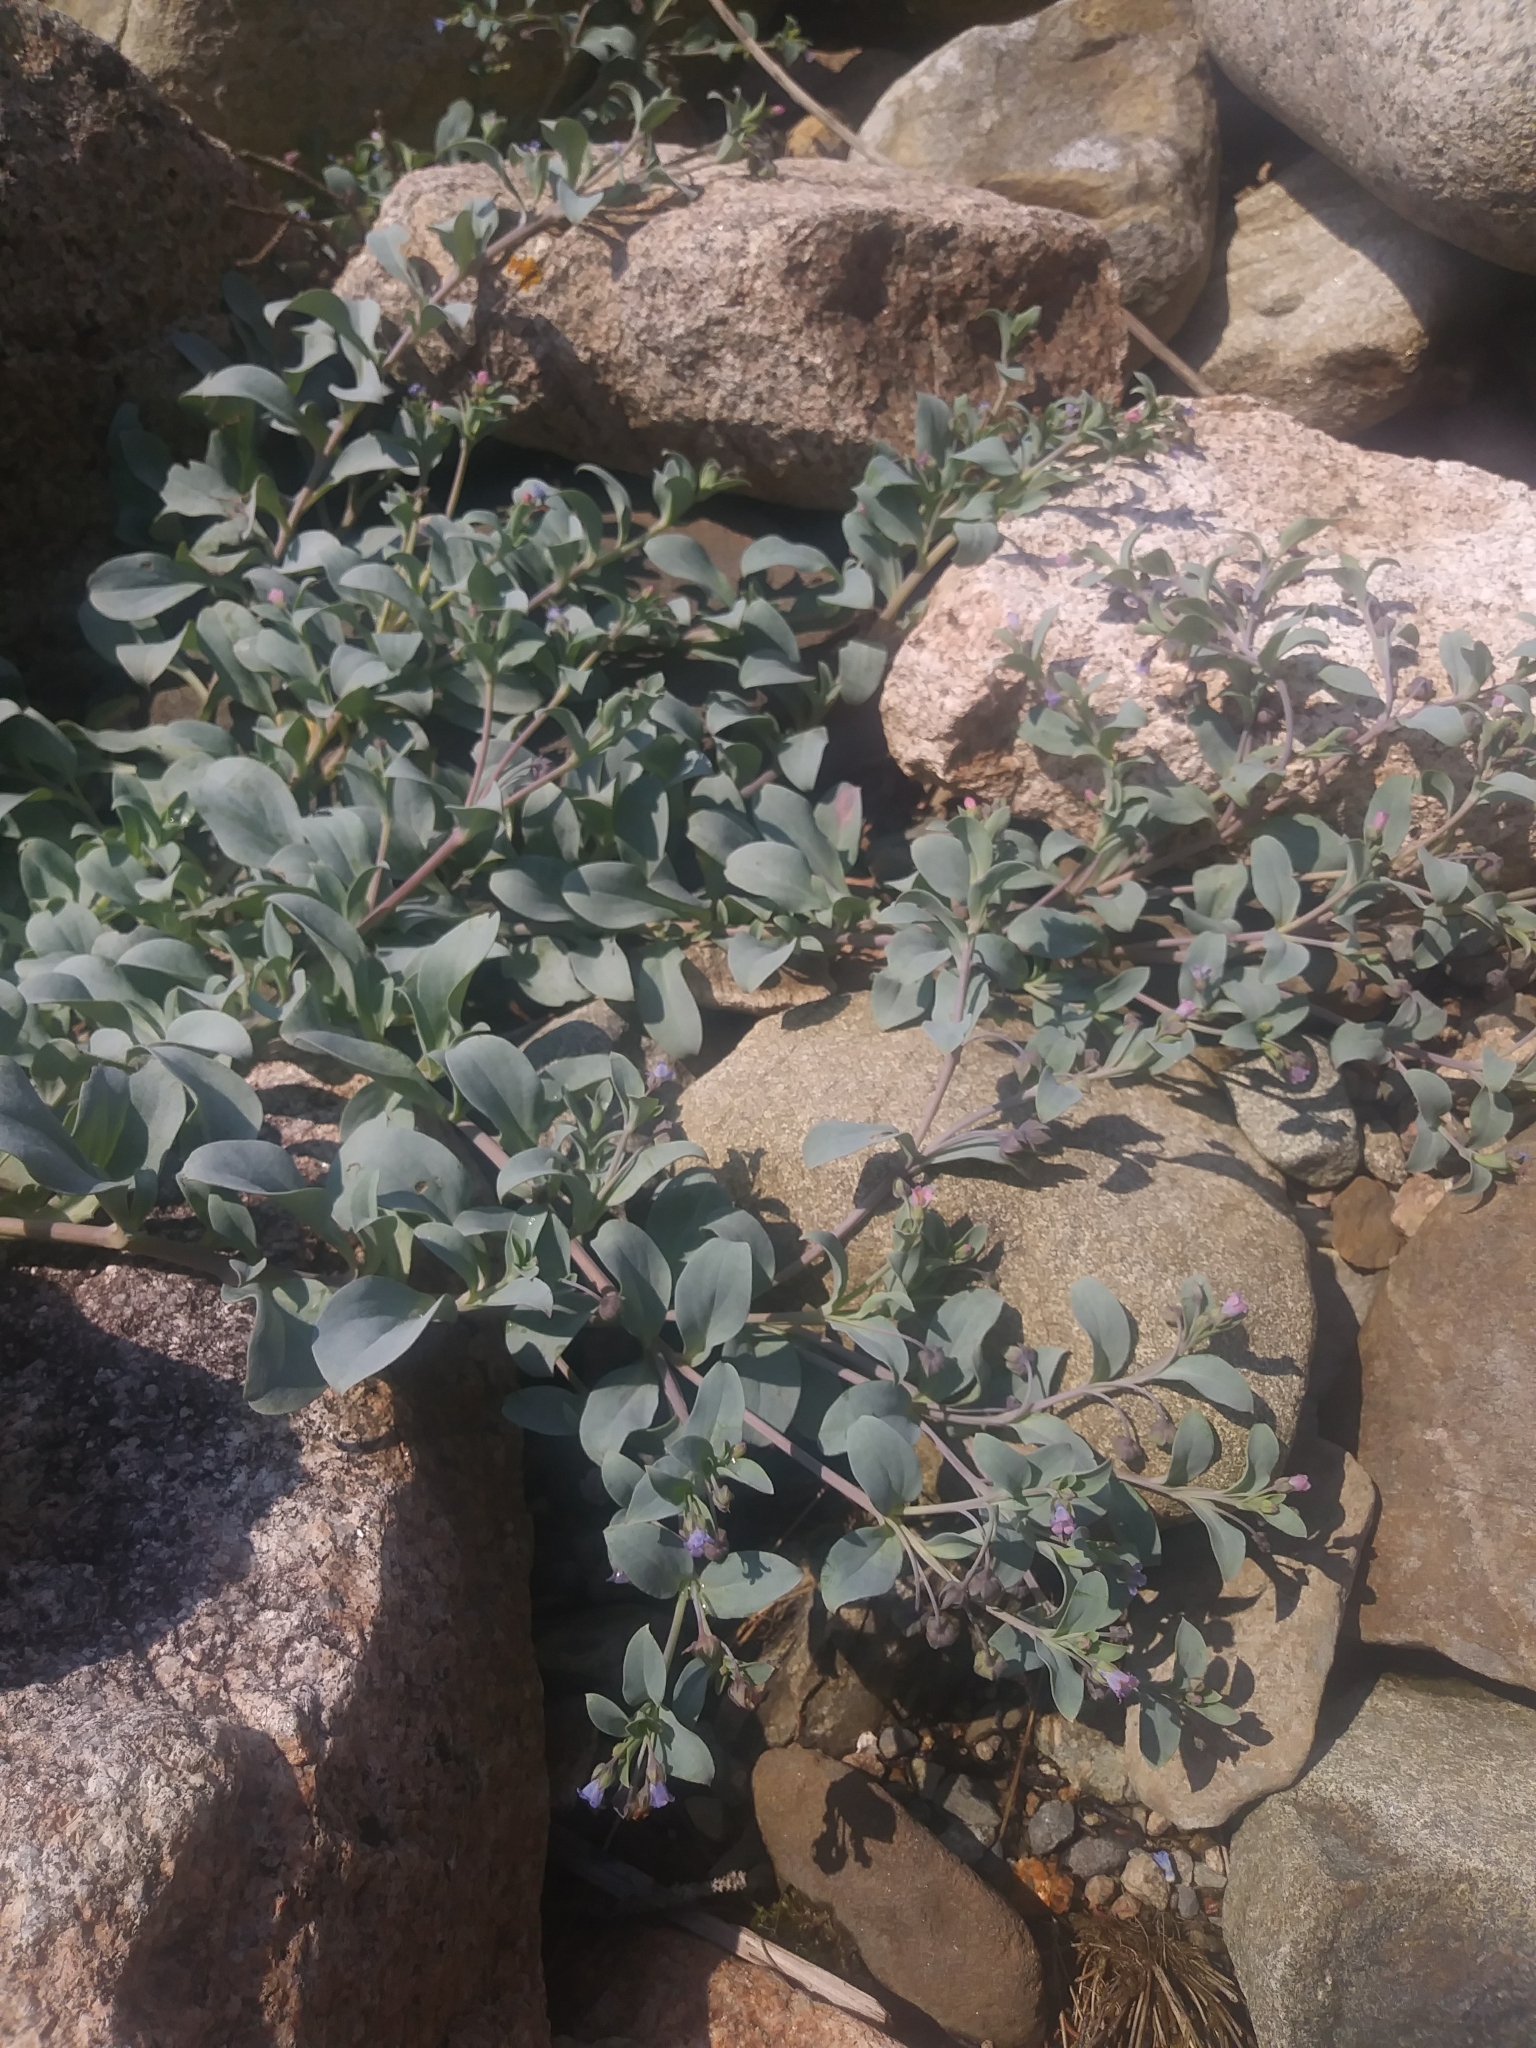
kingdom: Plantae
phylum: Tracheophyta
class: Magnoliopsida
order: Boraginales
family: Boraginaceae
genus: Mertensia
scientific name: Mertensia maritima
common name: Oysterplant
